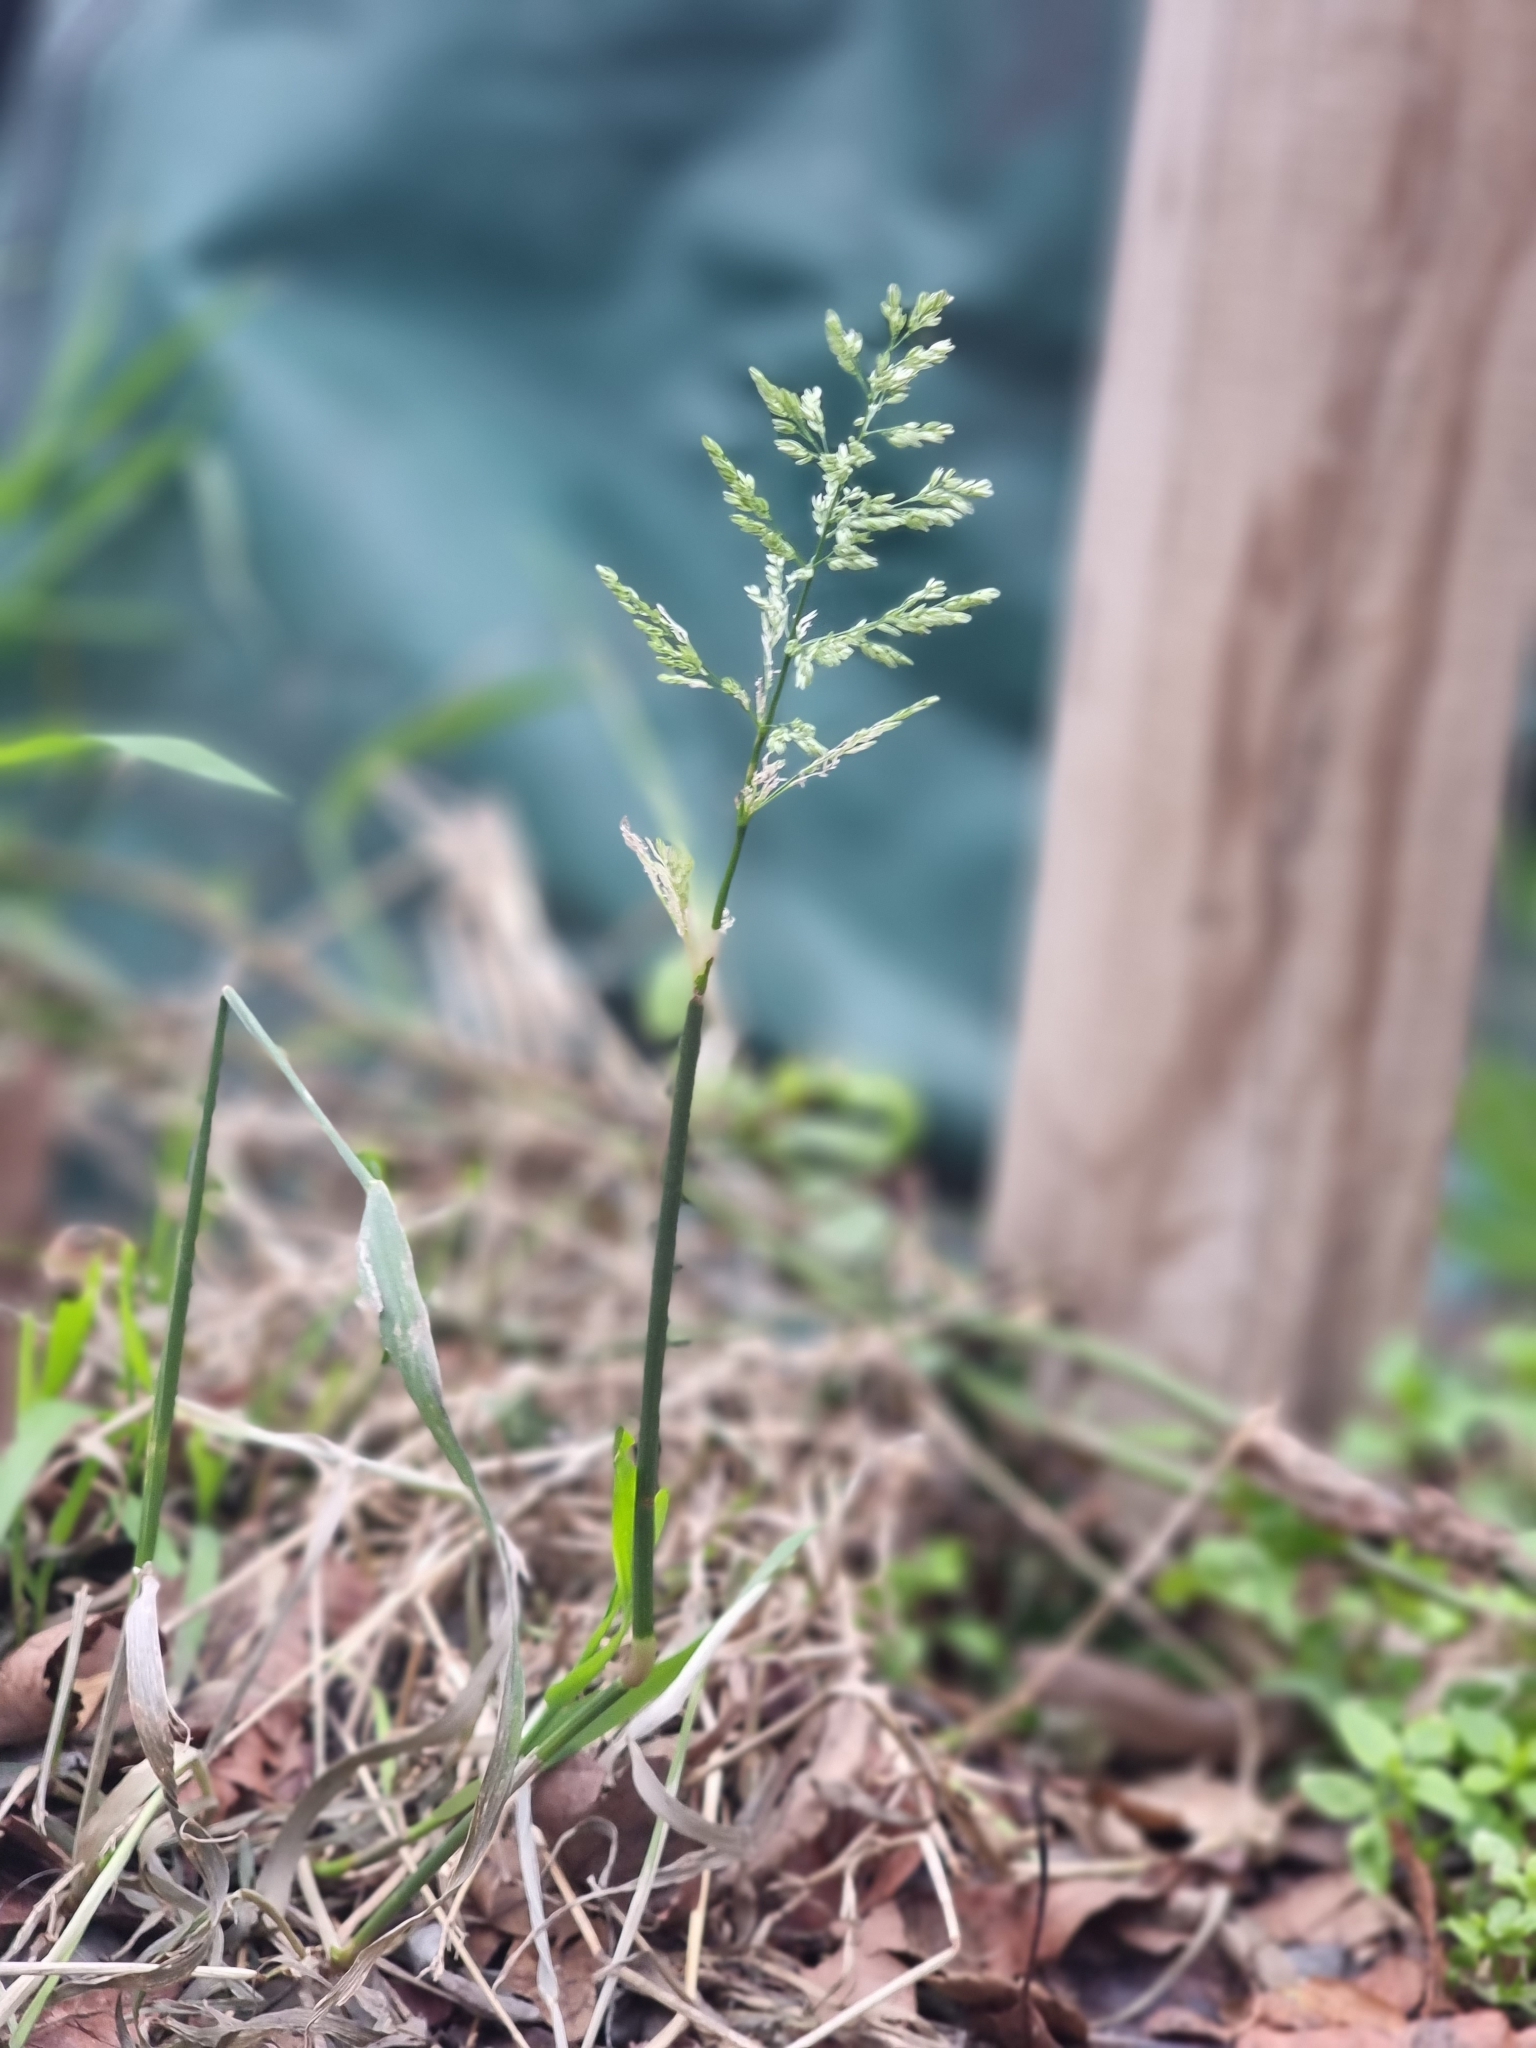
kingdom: Plantae
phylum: Tracheophyta
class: Liliopsida
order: Poales
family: Poaceae
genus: Polypogon
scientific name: Polypogon viridis
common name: Water bent
